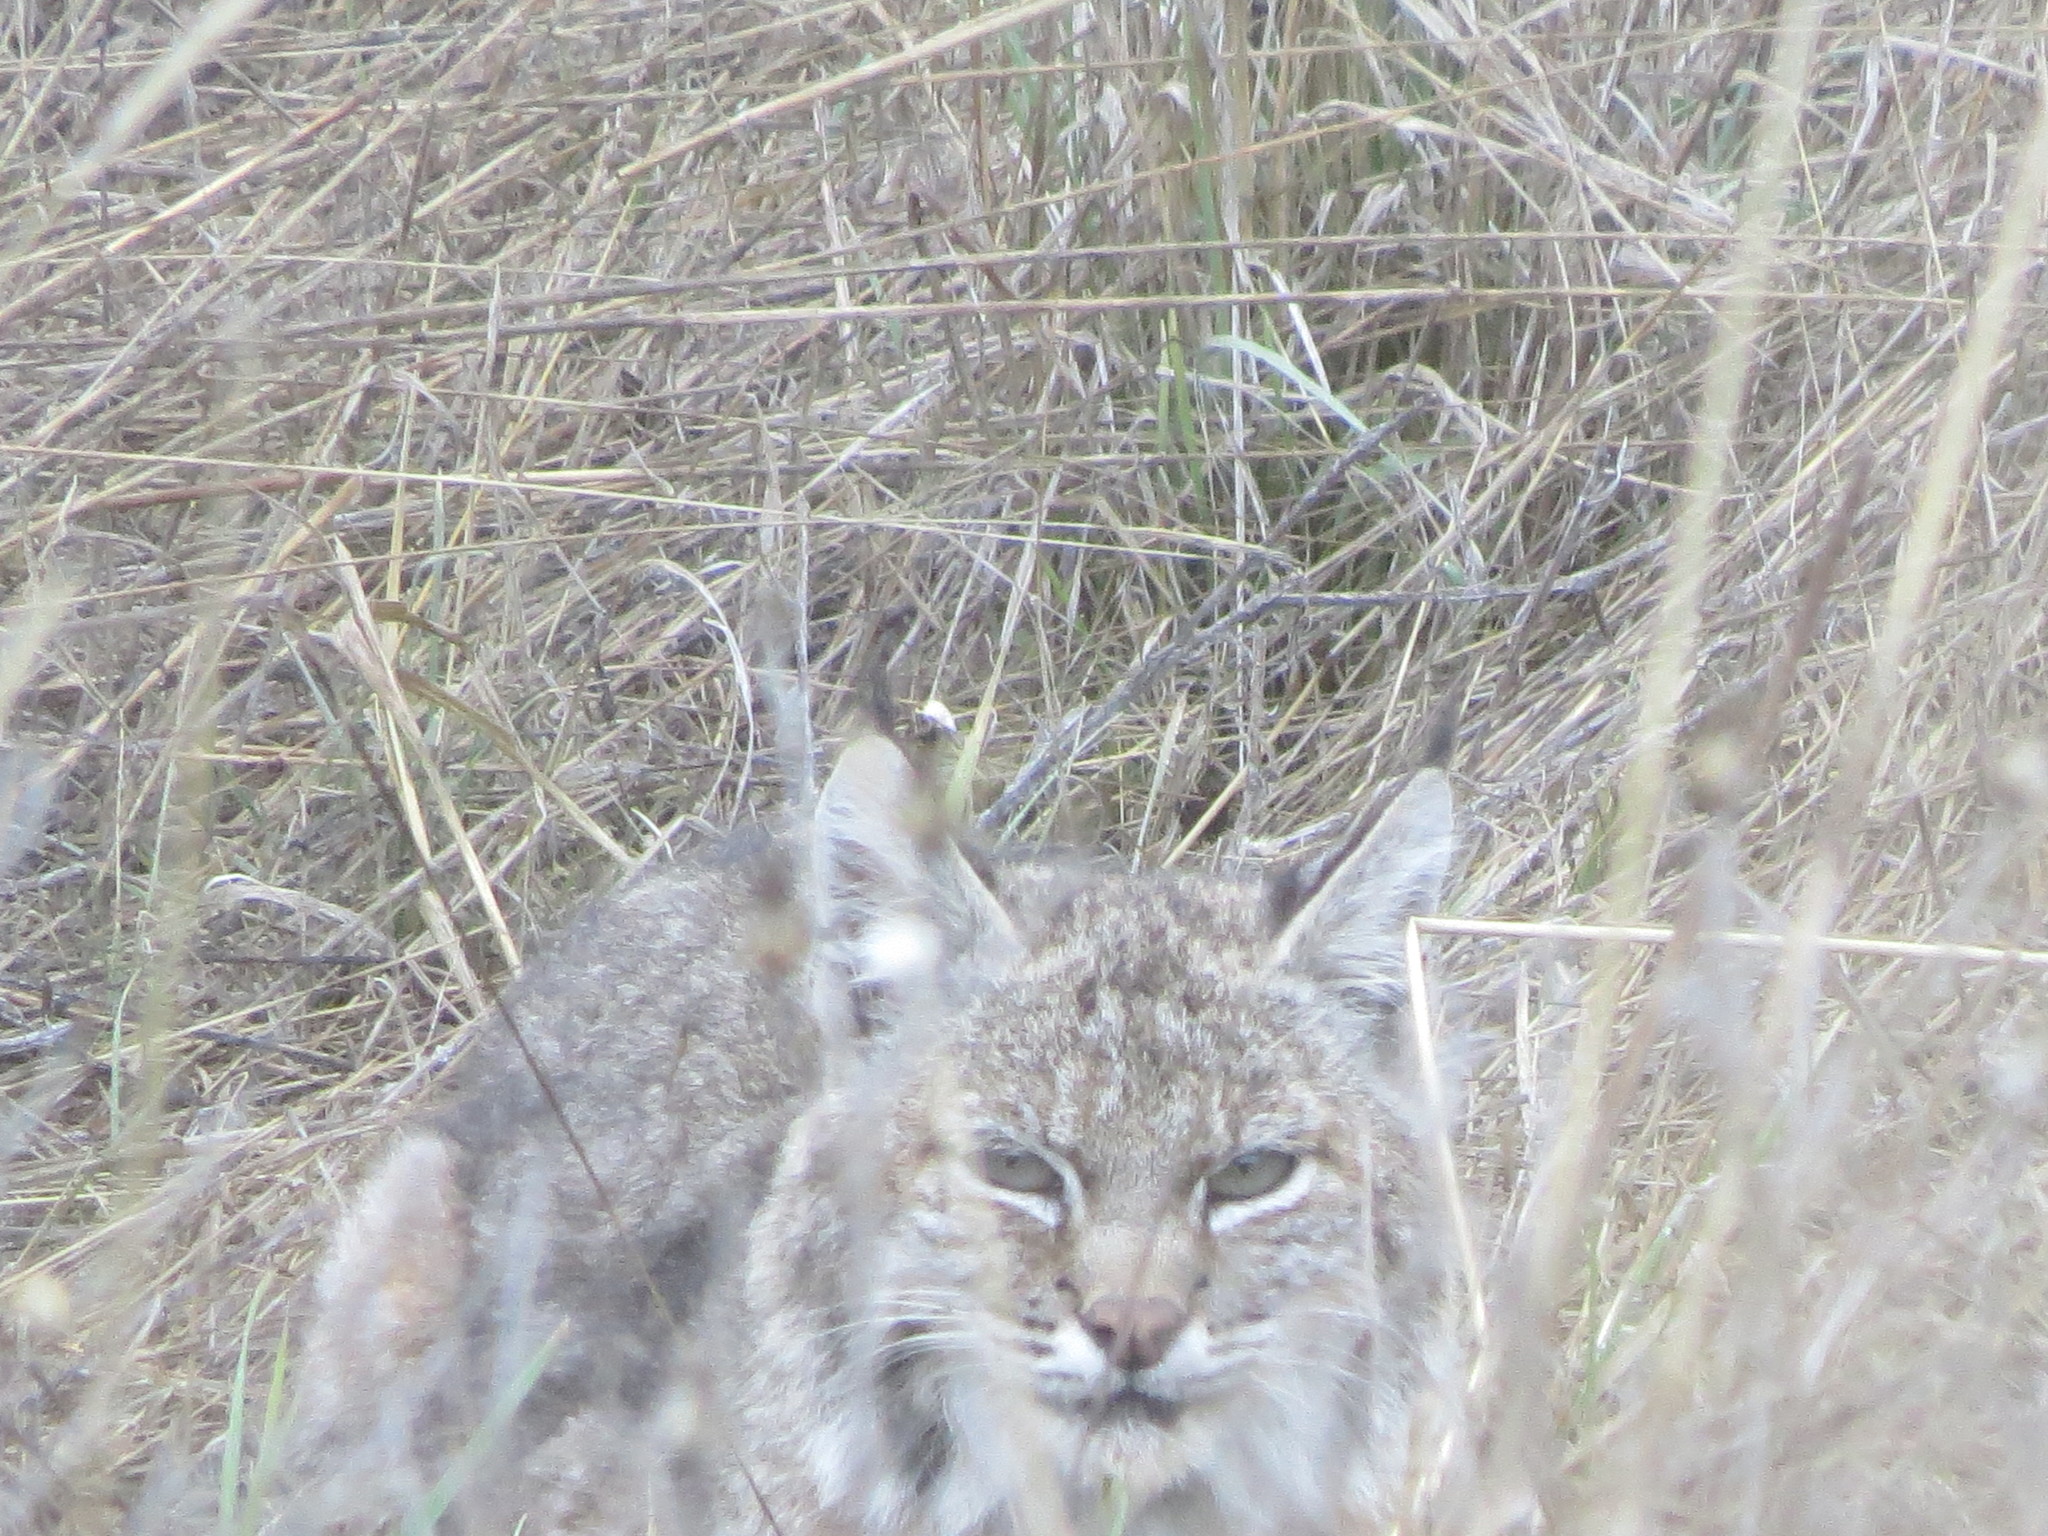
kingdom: Animalia
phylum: Chordata
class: Mammalia
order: Carnivora
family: Felidae
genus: Lynx
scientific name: Lynx rufus
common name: Bobcat
